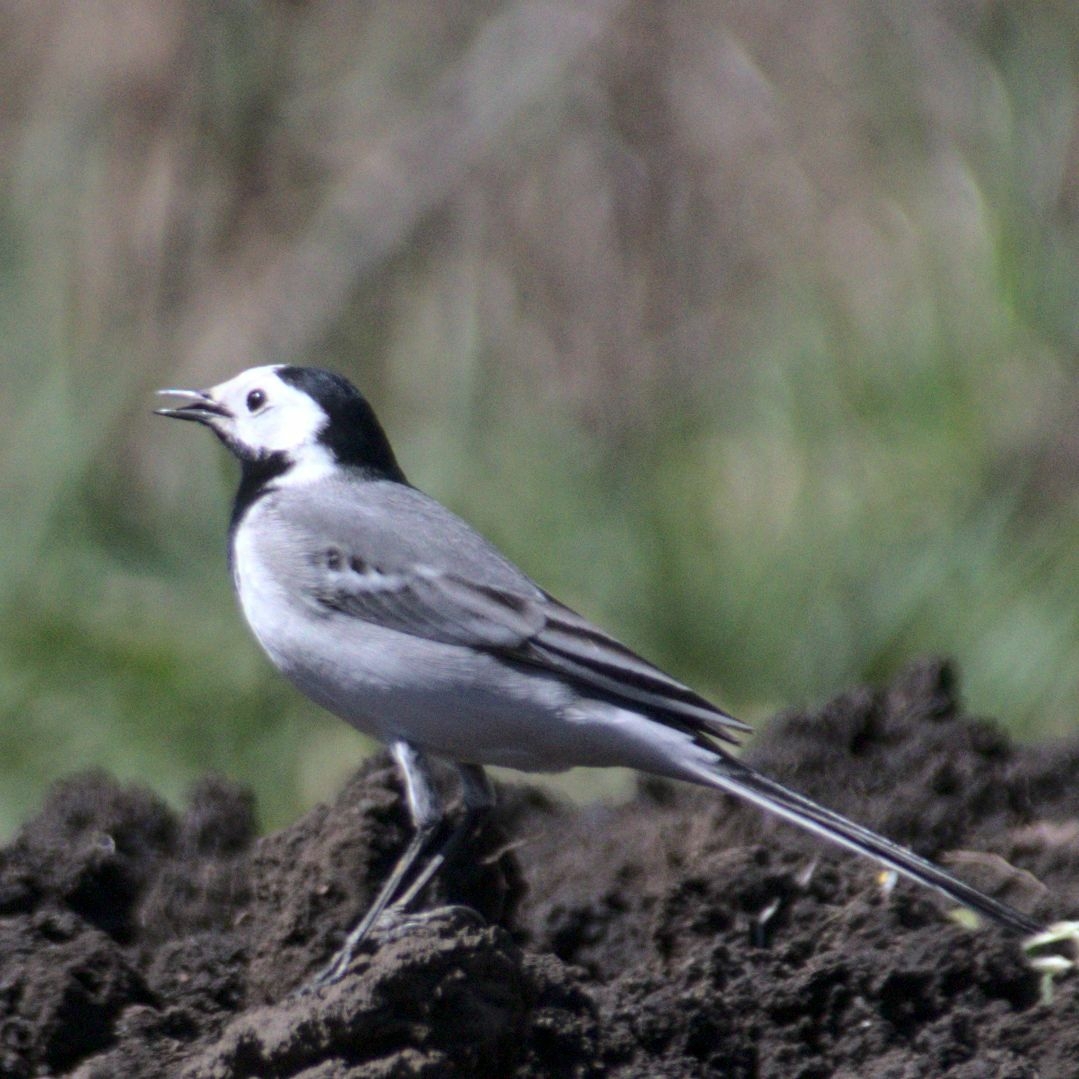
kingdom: Animalia
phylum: Chordata
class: Aves
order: Passeriformes
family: Motacillidae
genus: Motacilla
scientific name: Motacilla alba
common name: White wagtail
